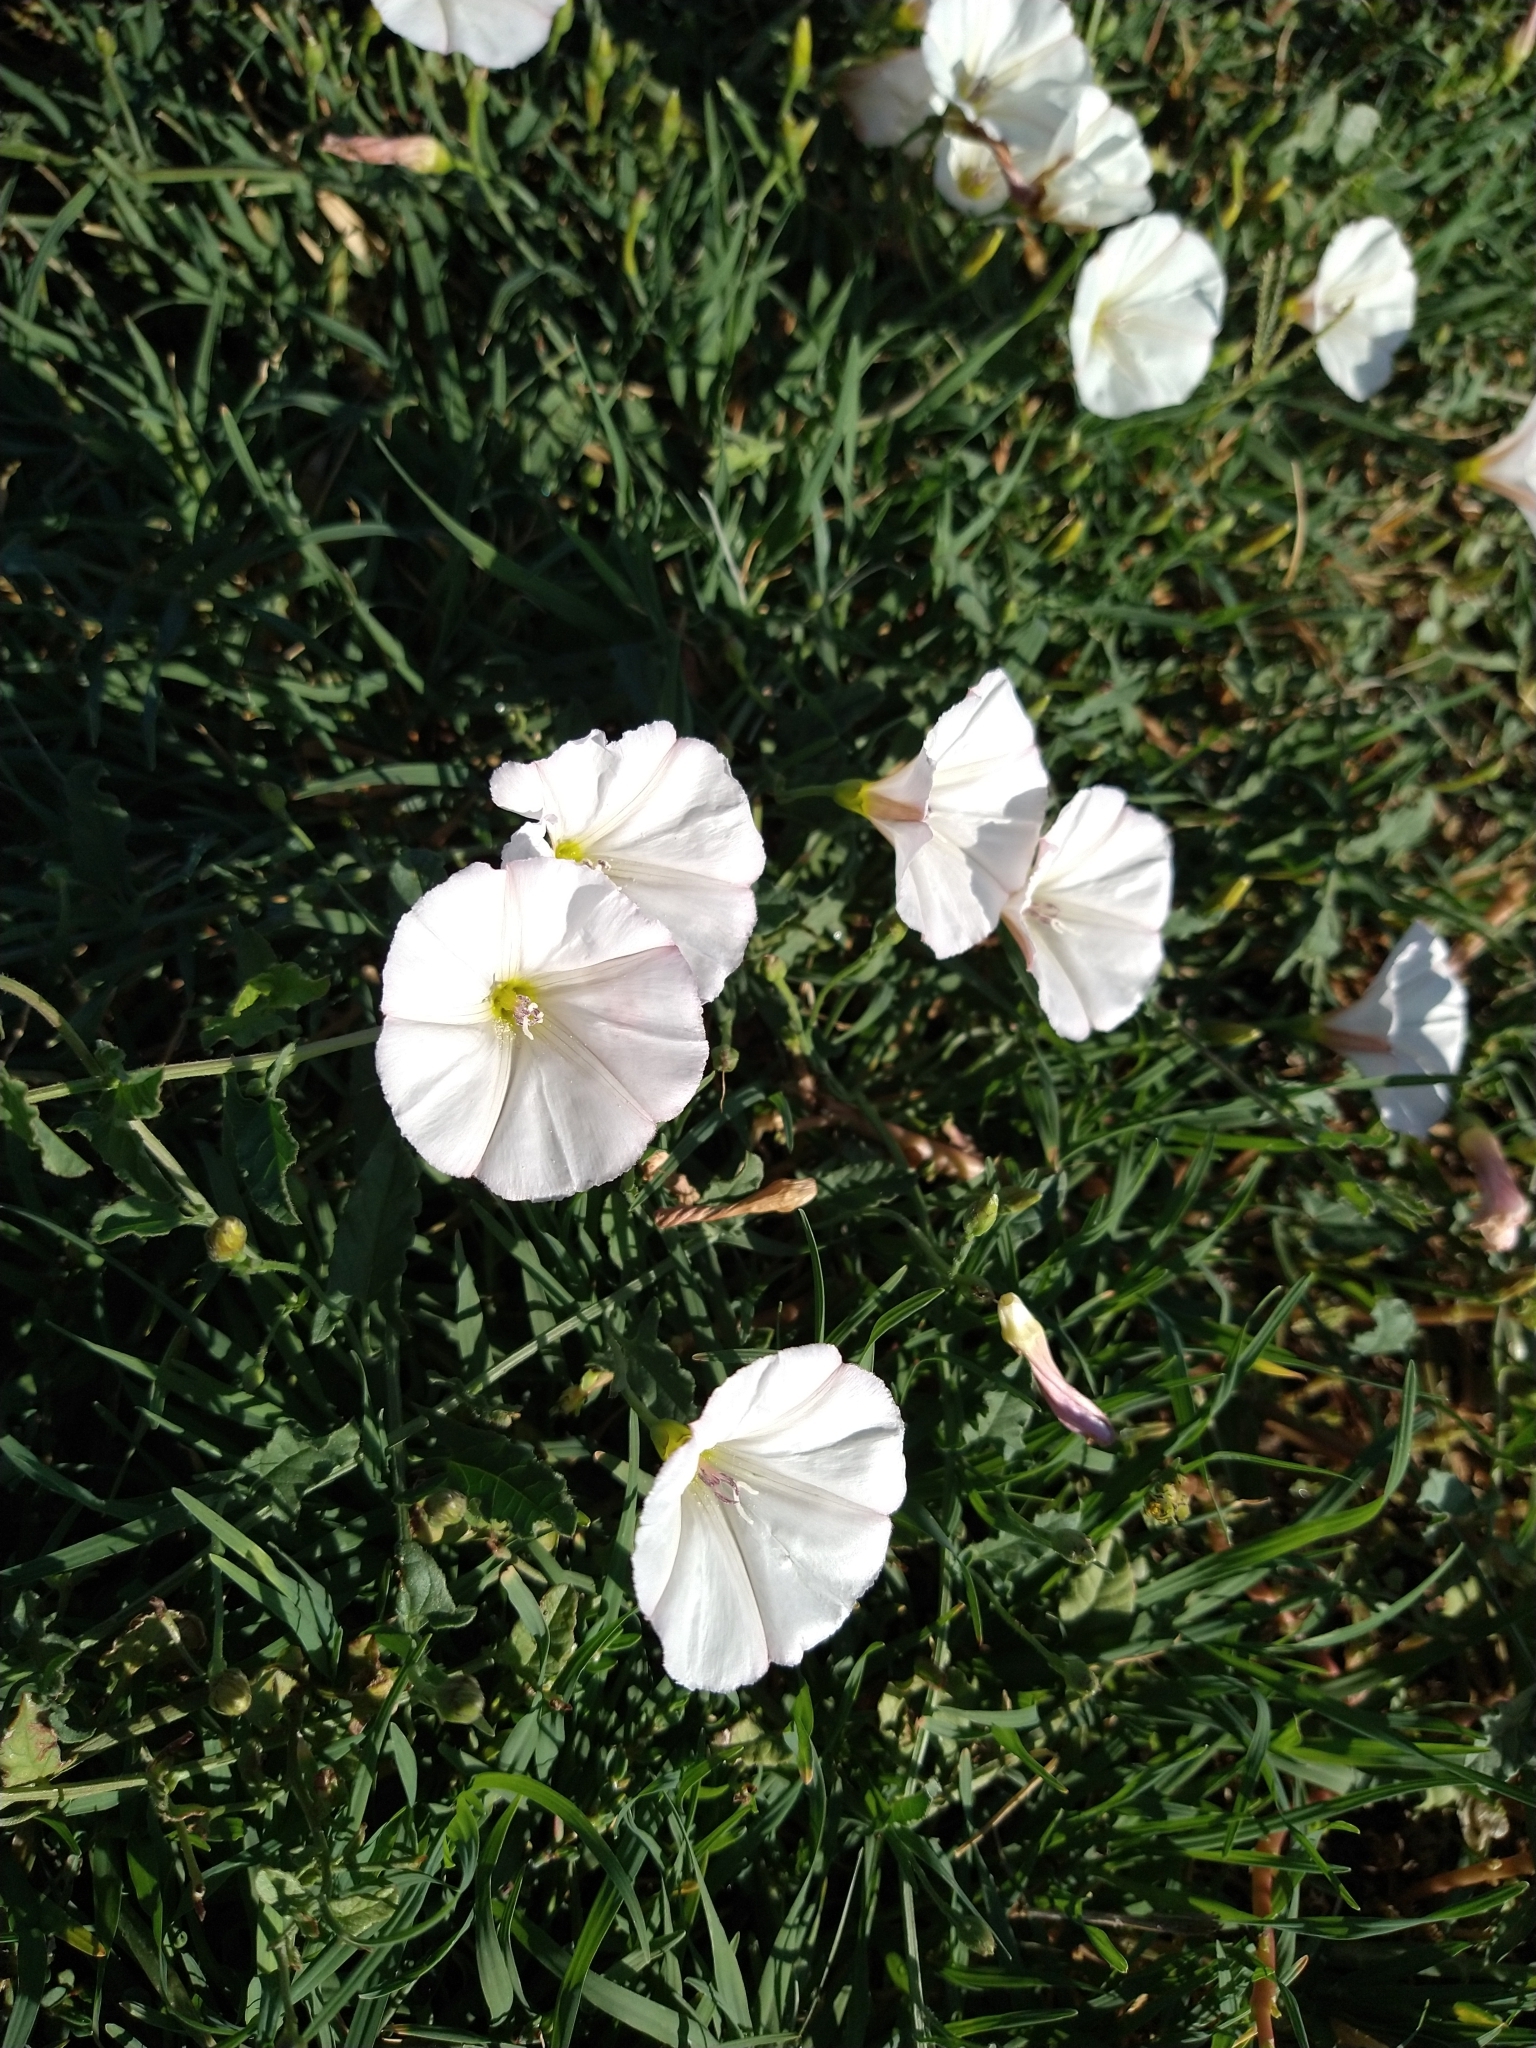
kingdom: Plantae
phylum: Tracheophyta
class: Magnoliopsida
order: Solanales
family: Convolvulaceae
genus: Convolvulus
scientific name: Convolvulus arvensis
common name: Field bindweed
